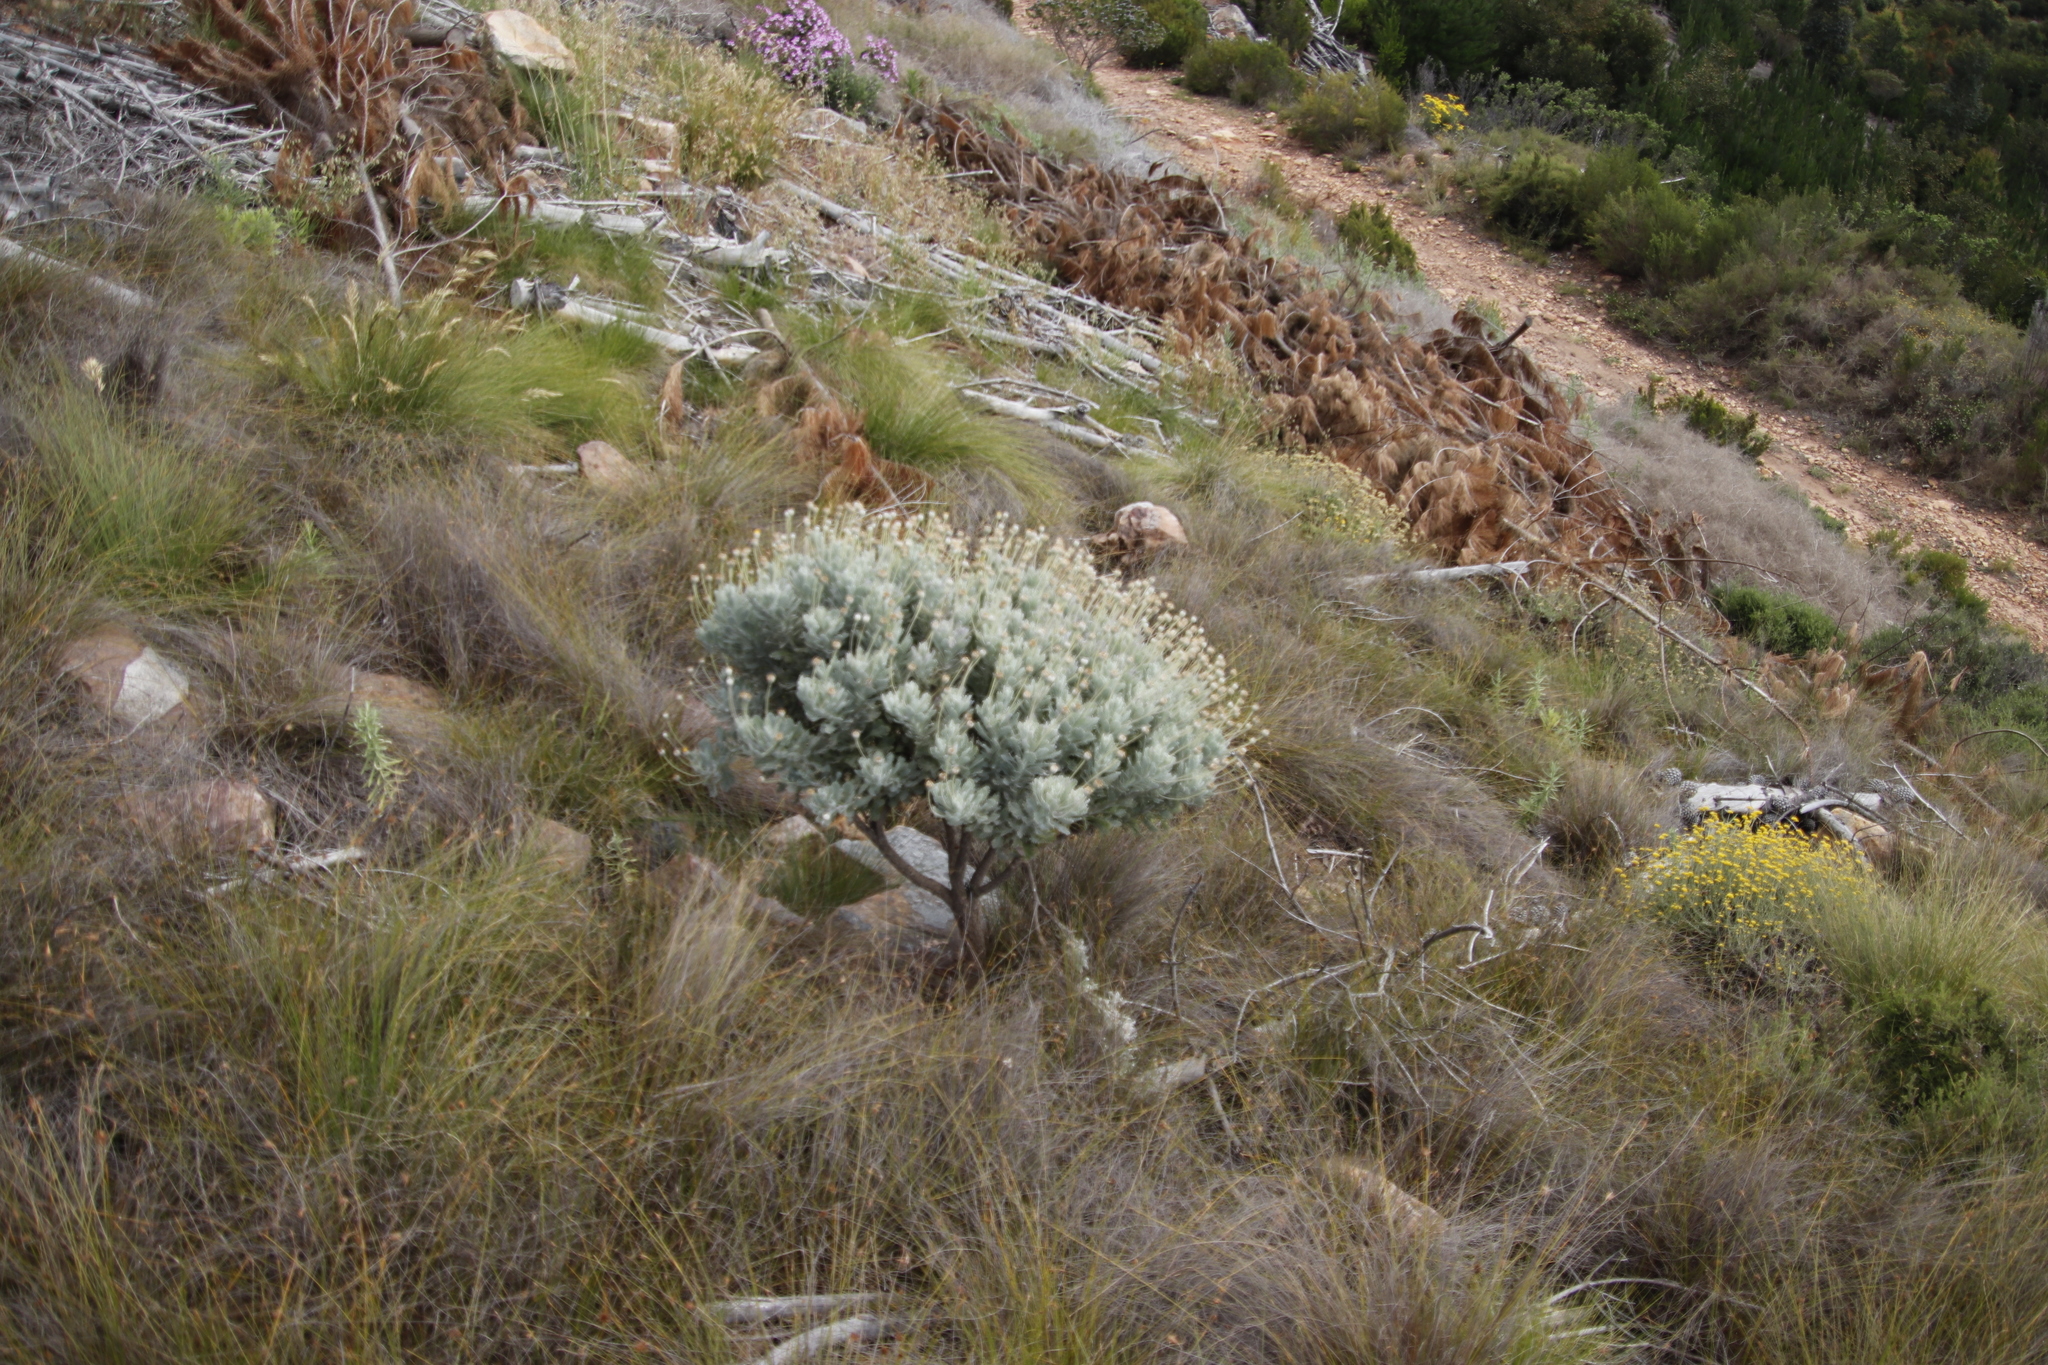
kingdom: Plantae
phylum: Tracheophyta
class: Magnoliopsida
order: Asterales
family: Asteraceae
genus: Euryops
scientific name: Euryops pectinatus
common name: Gray-leaf euryops
